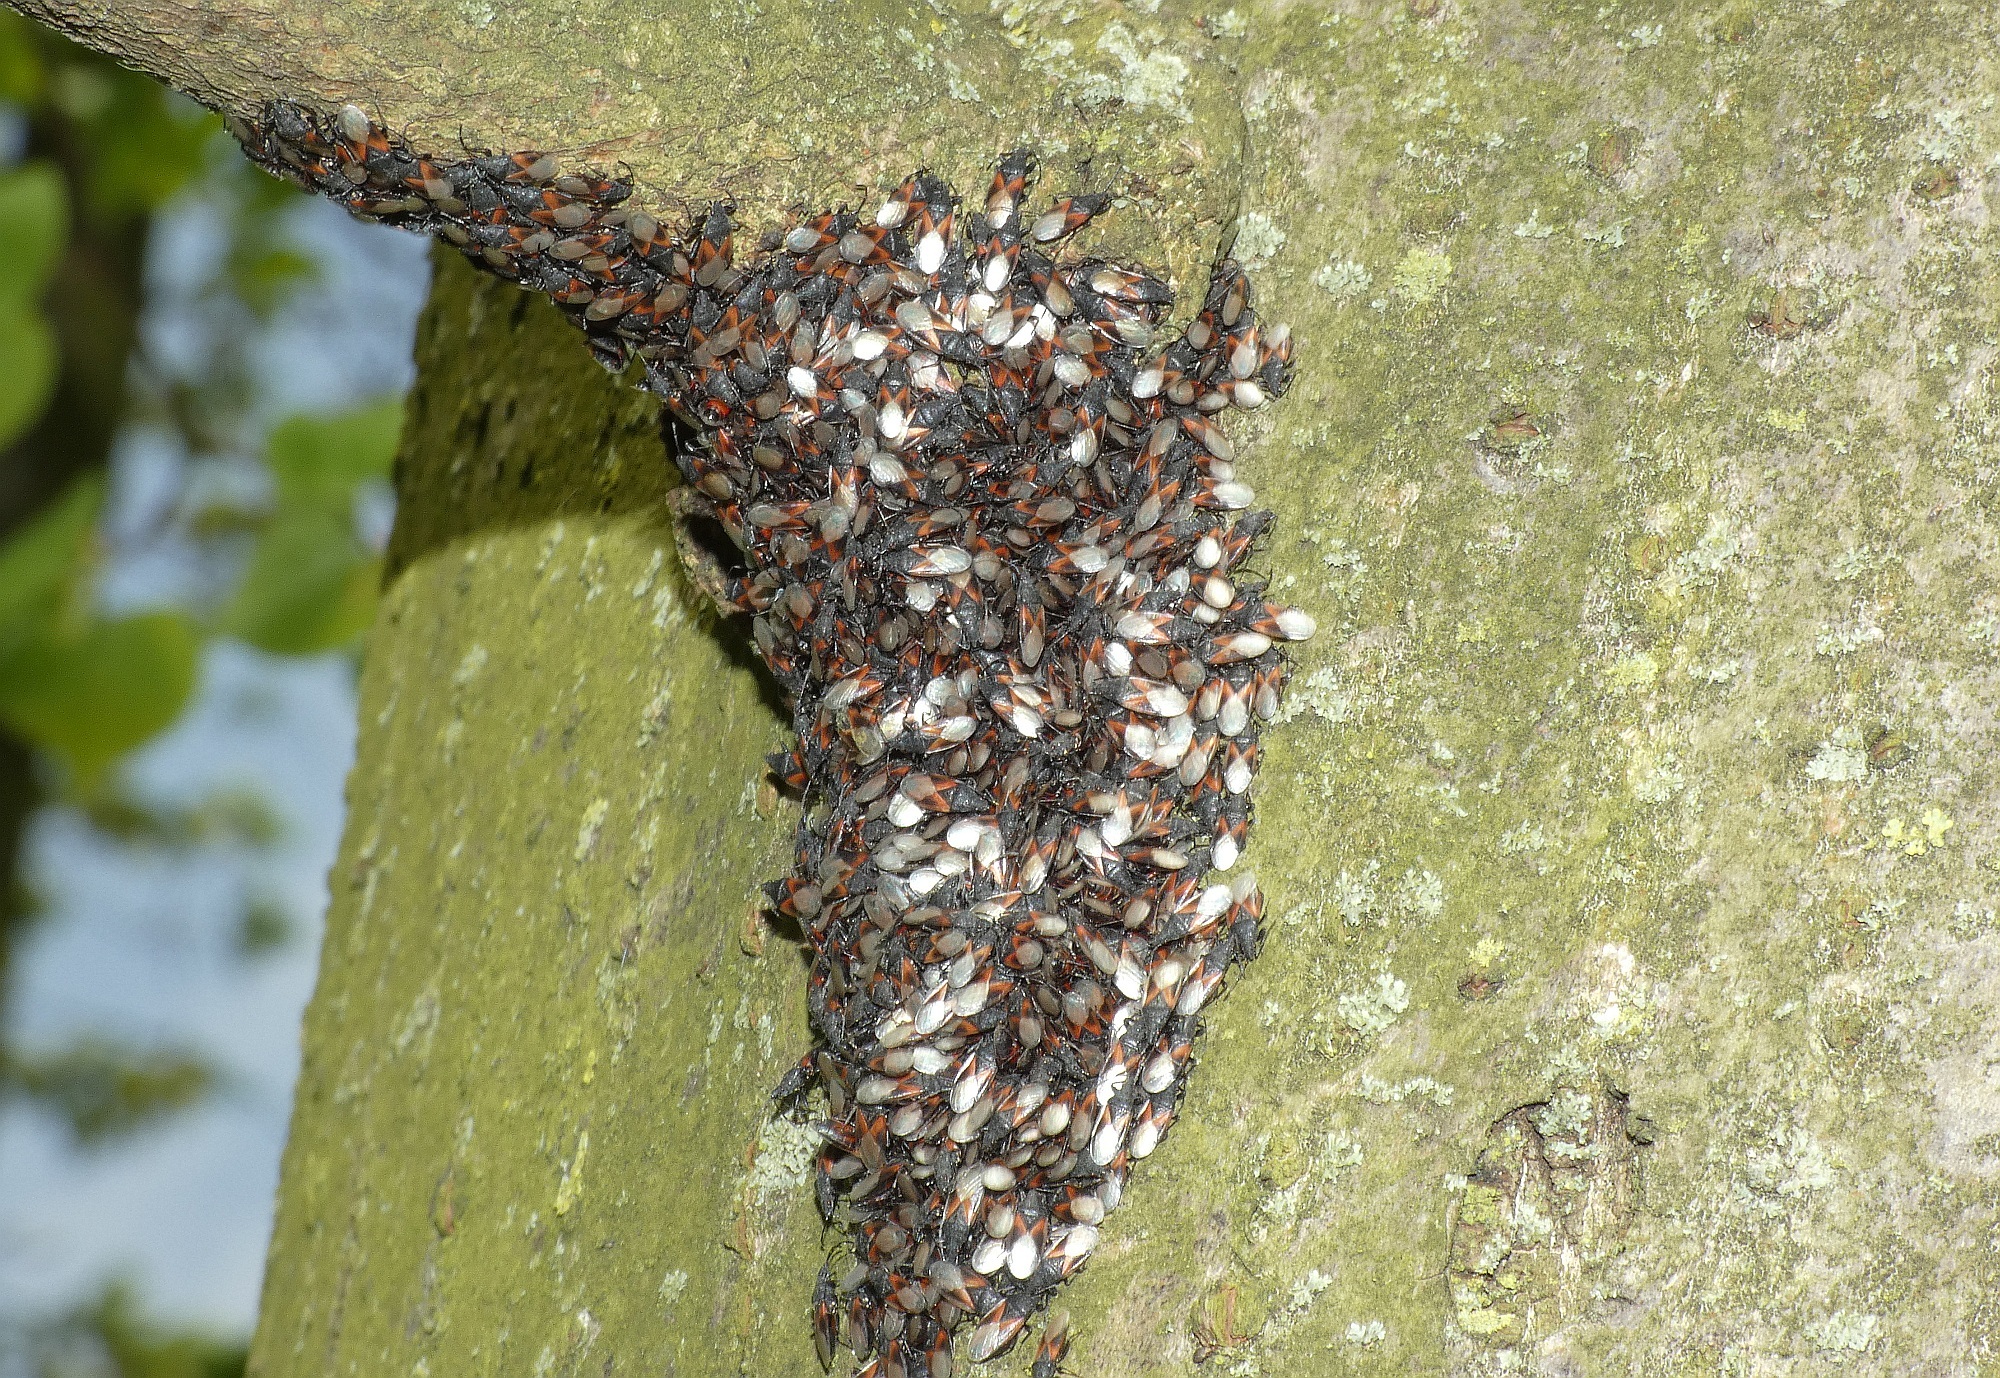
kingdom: Animalia
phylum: Arthropoda
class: Insecta
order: Hemiptera
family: Oxycarenidae
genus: Oxycarenus
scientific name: Oxycarenus lavaterae
